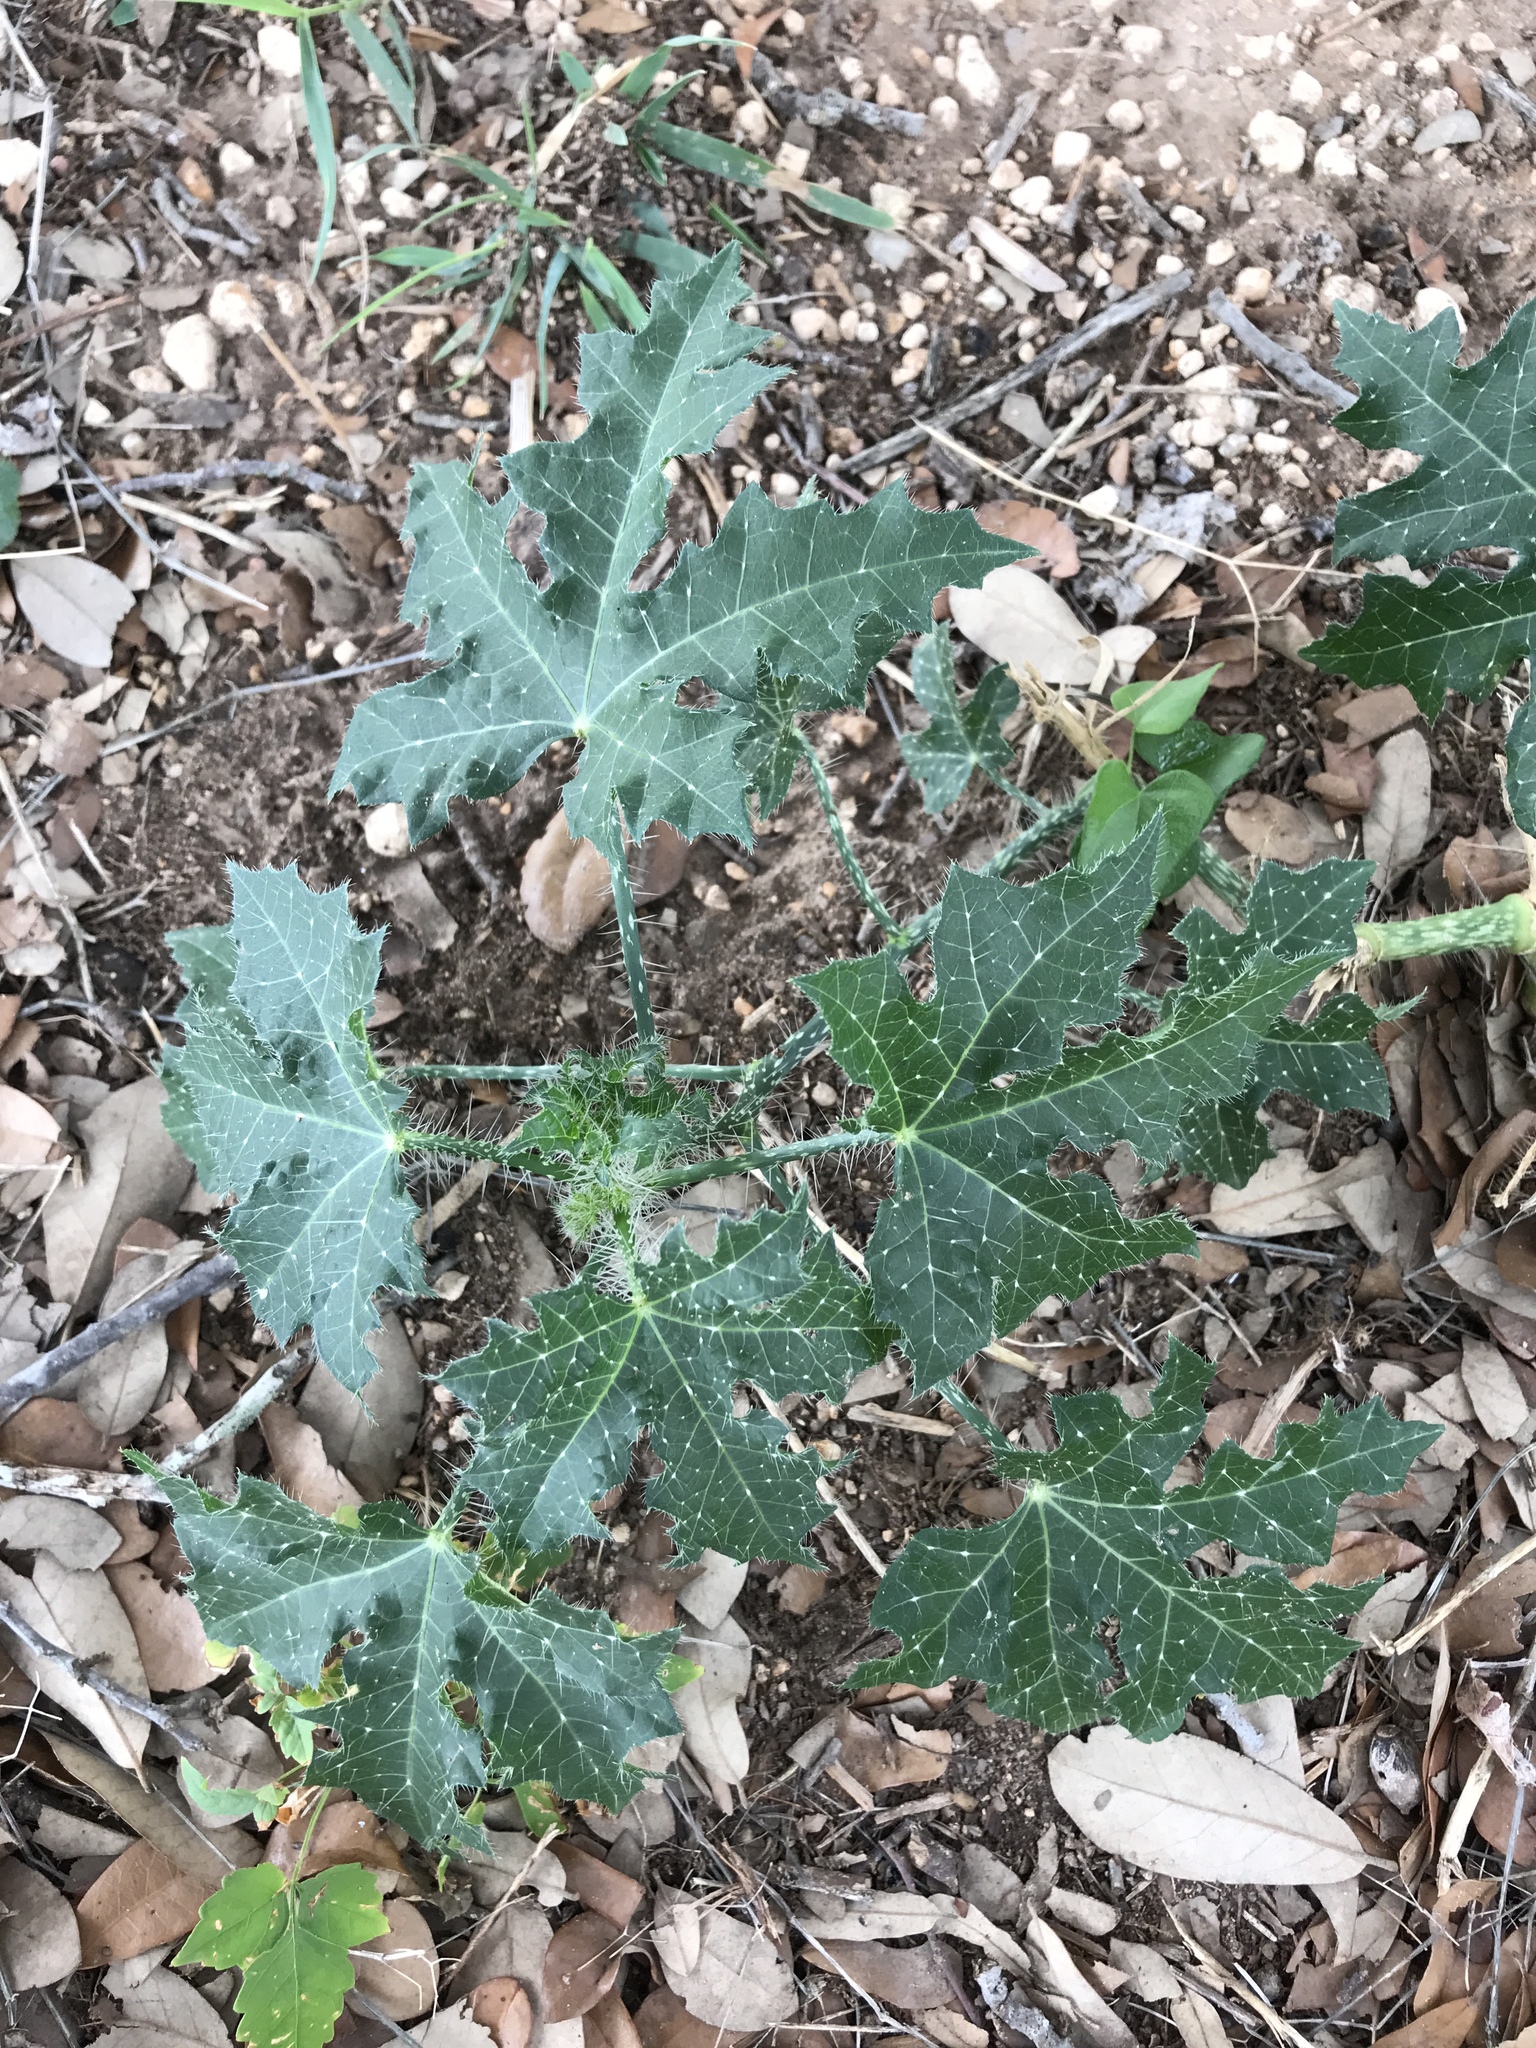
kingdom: Plantae
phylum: Tracheophyta
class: Magnoliopsida
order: Malpighiales
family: Euphorbiaceae
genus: Cnidoscolus
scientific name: Cnidoscolus texanus
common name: Texas bull-nettle
